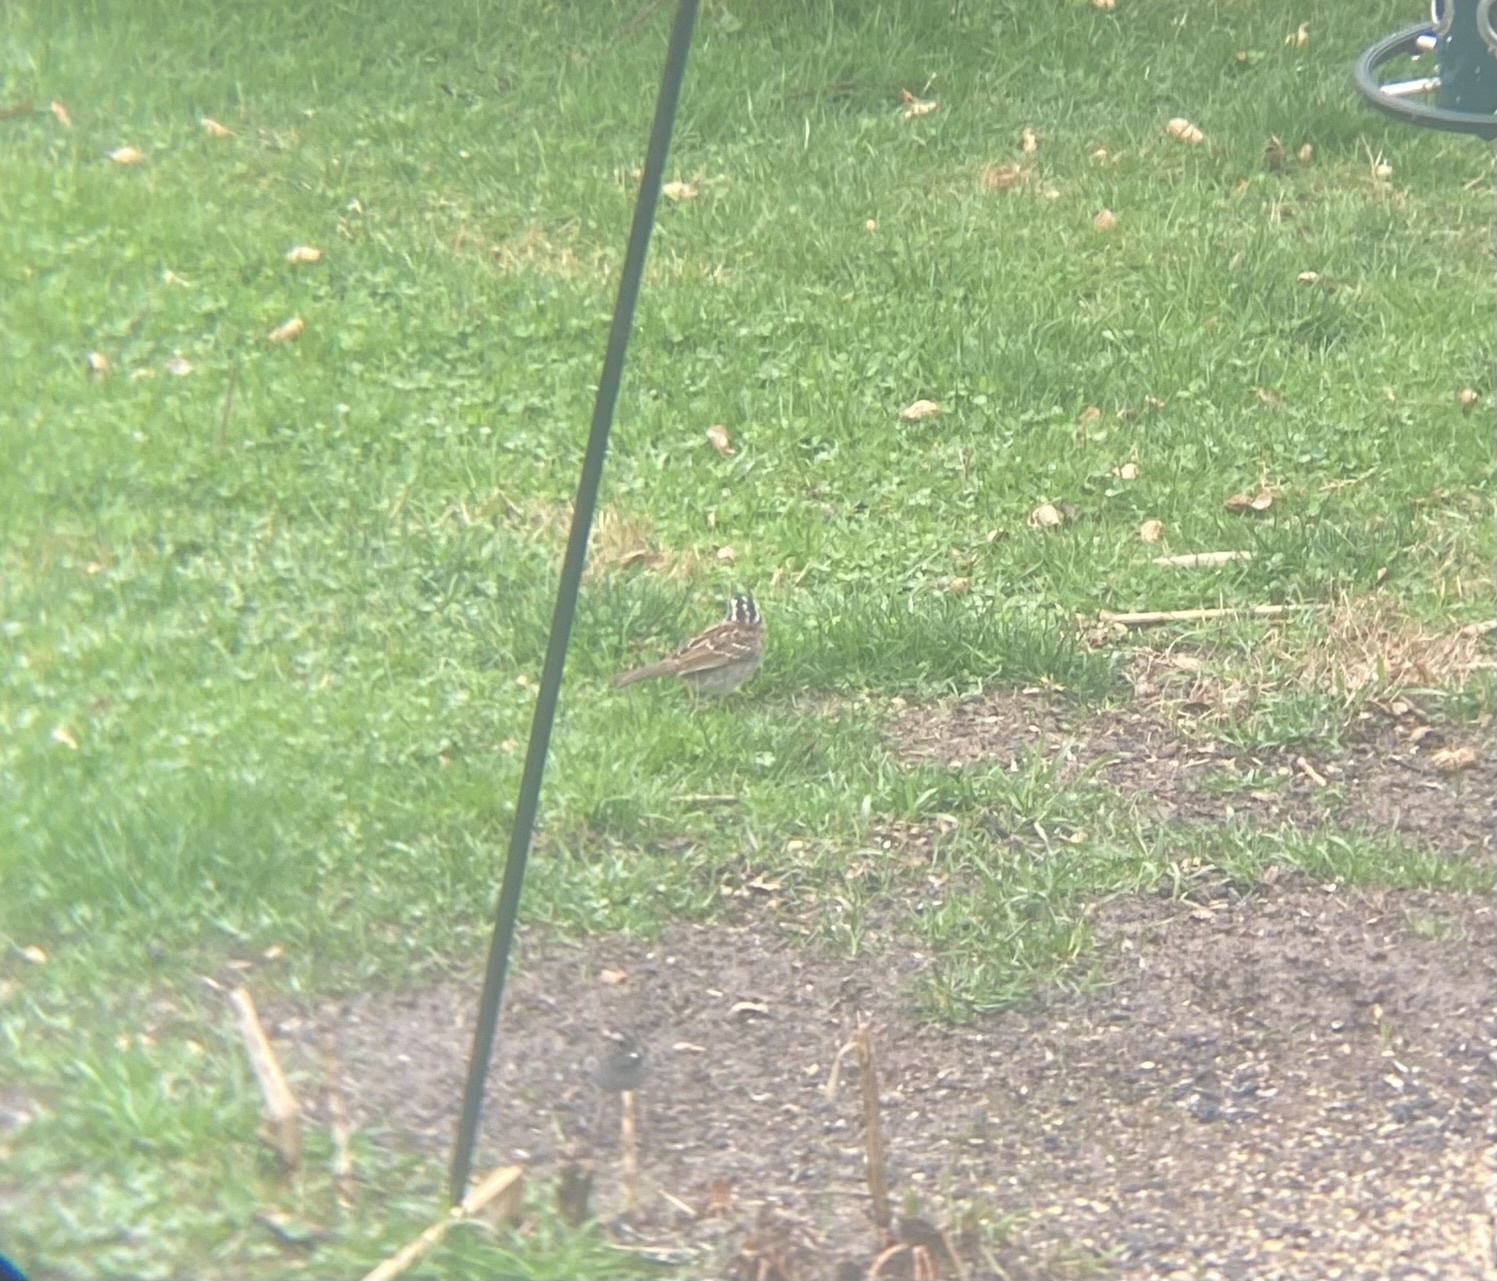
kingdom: Animalia
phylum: Chordata
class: Aves
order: Passeriformes
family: Passerellidae
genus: Zonotrichia
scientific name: Zonotrichia albicollis
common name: White-throated sparrow
